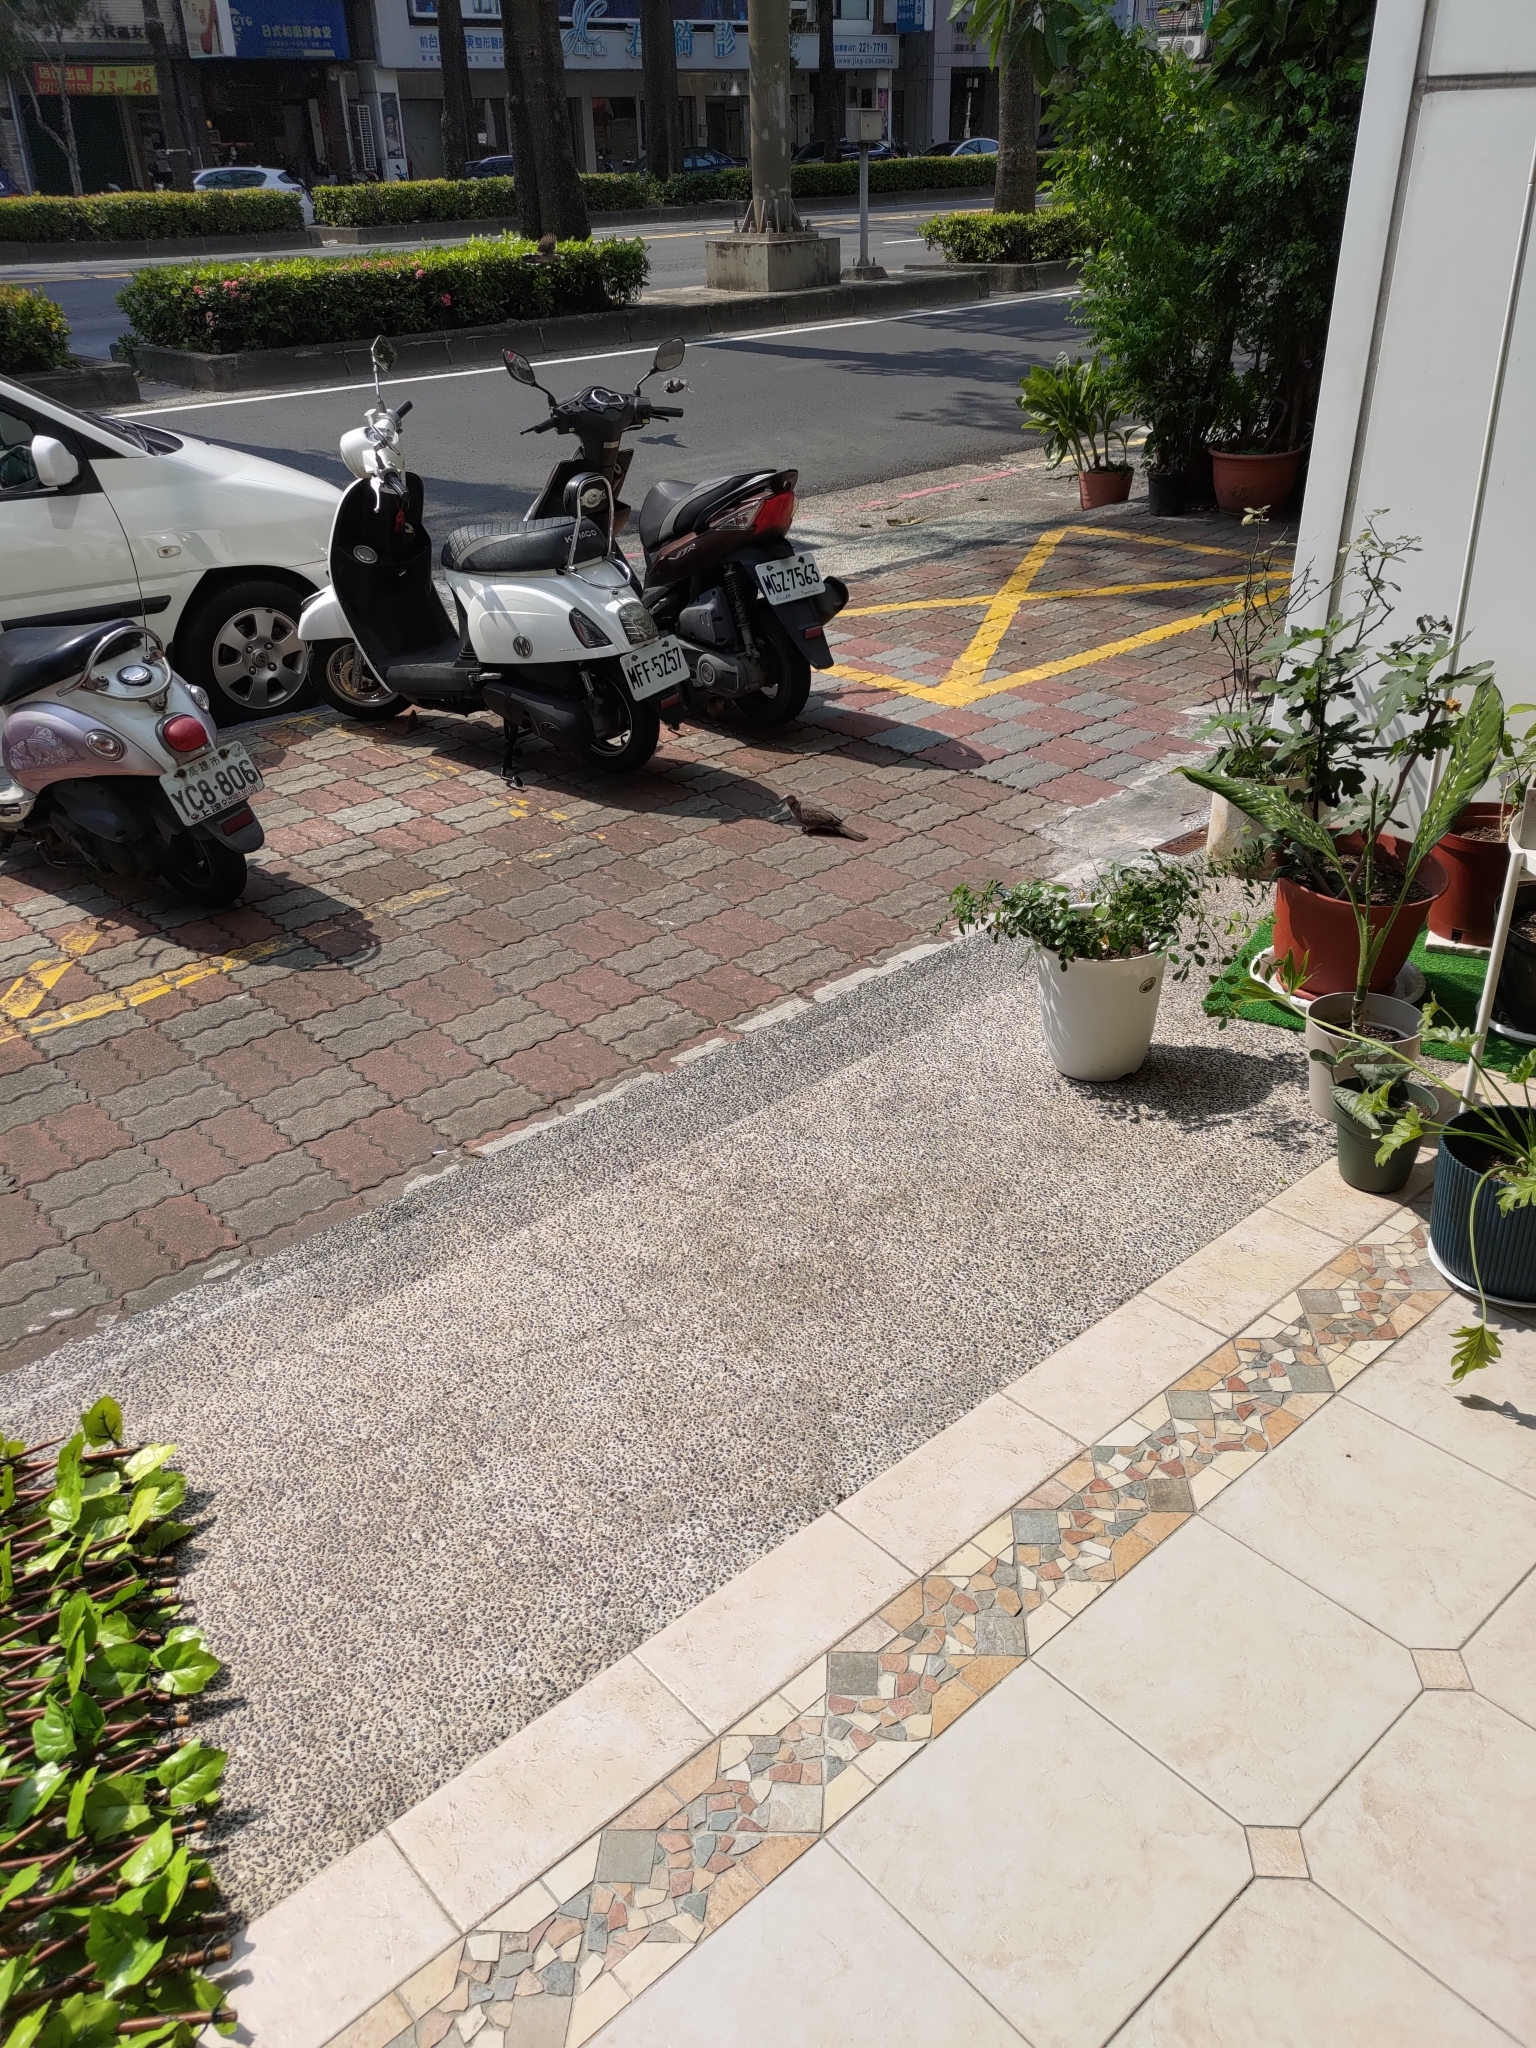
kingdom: Animalia
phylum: Chordata
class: Aves
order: Columbiformes
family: Columbidae
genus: Spilopelia
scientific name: Spilopelia chinensis
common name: Spotted dove
